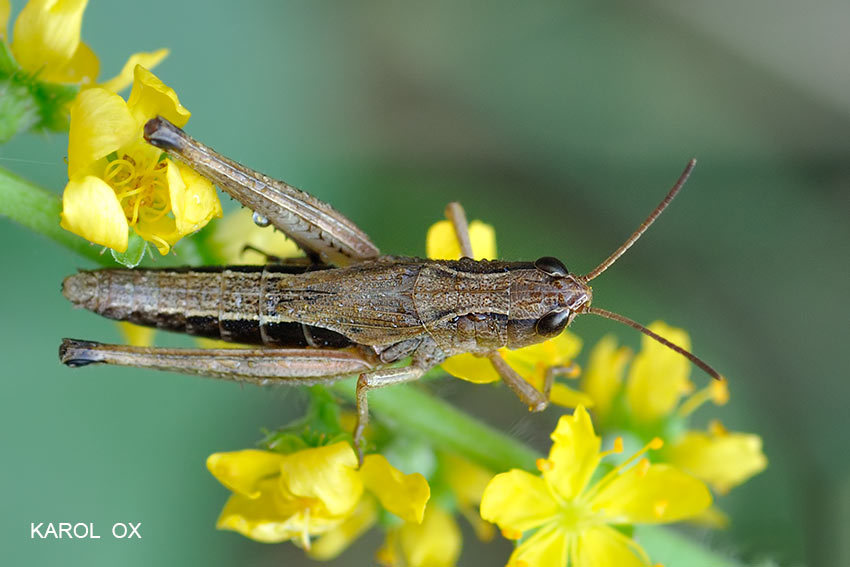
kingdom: Animalia
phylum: Arthropoda
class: Insecta
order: Orthoptera
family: Acrididae
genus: Pseudochorthippus
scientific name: Pseudochorthippus parallelus
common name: Meadow grasshopper
